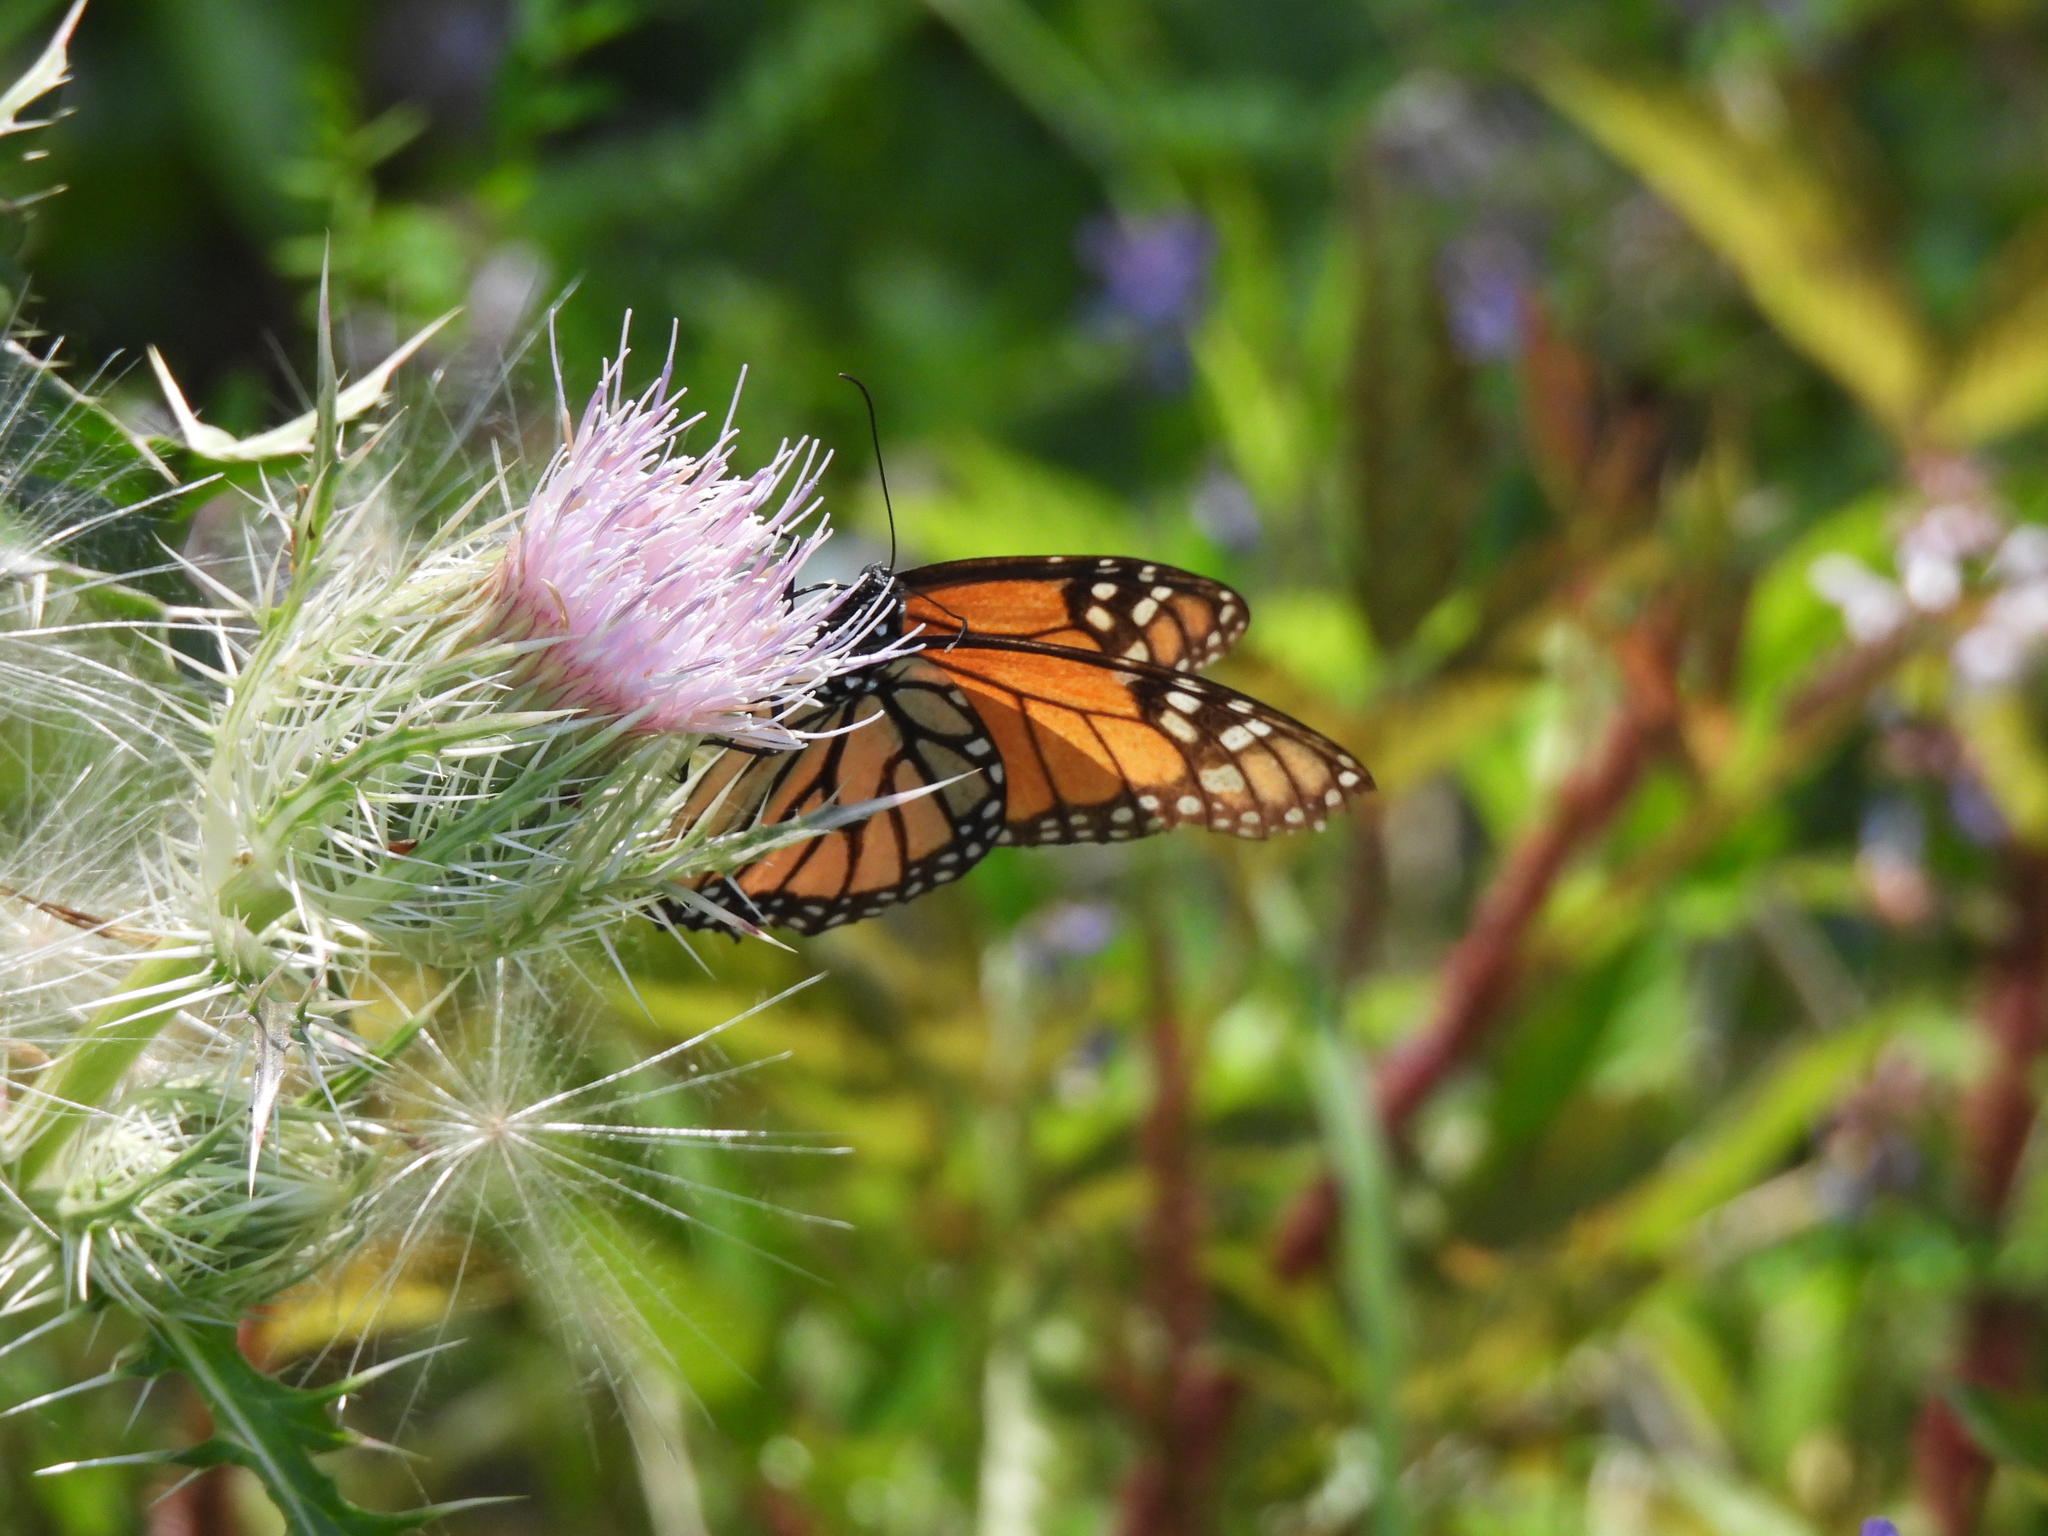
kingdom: Animalia
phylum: Arthropoda
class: Insecta
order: Lepidoptera
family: Nymphalidae
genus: Danaus
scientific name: Danaus plexippus
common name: Monarch
